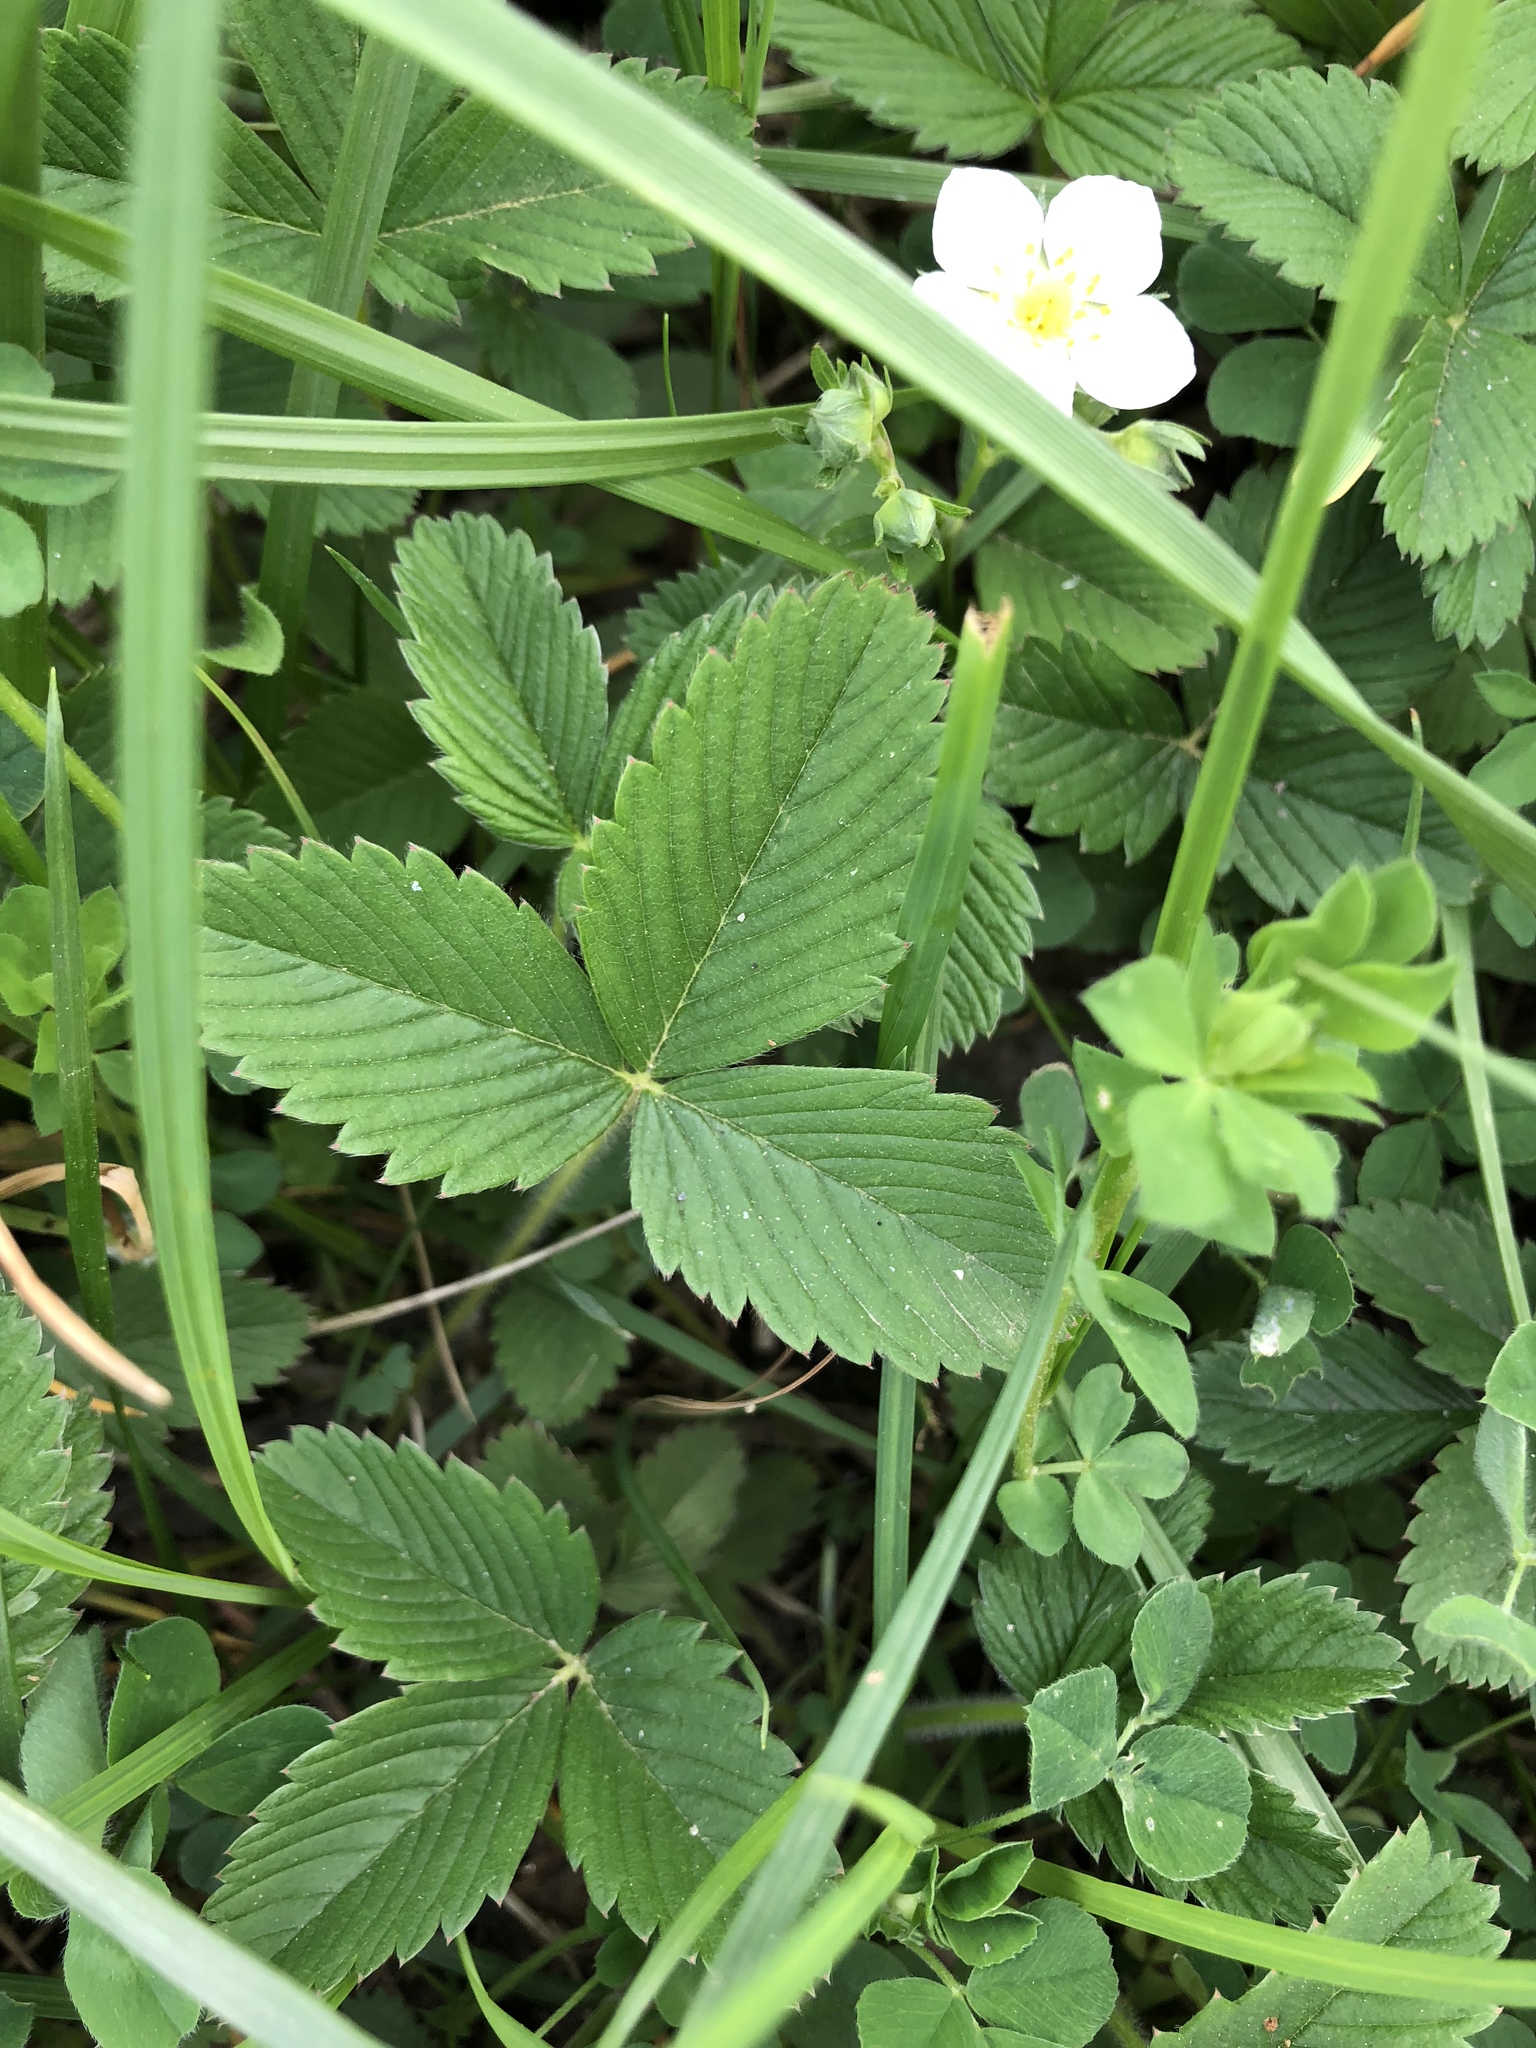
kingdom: Plantae
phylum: Tracheophyta
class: Magnoliopsida
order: Rosales
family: Rosaceae
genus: Fragaria
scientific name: Fragaria vesca
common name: Wild strawberry
